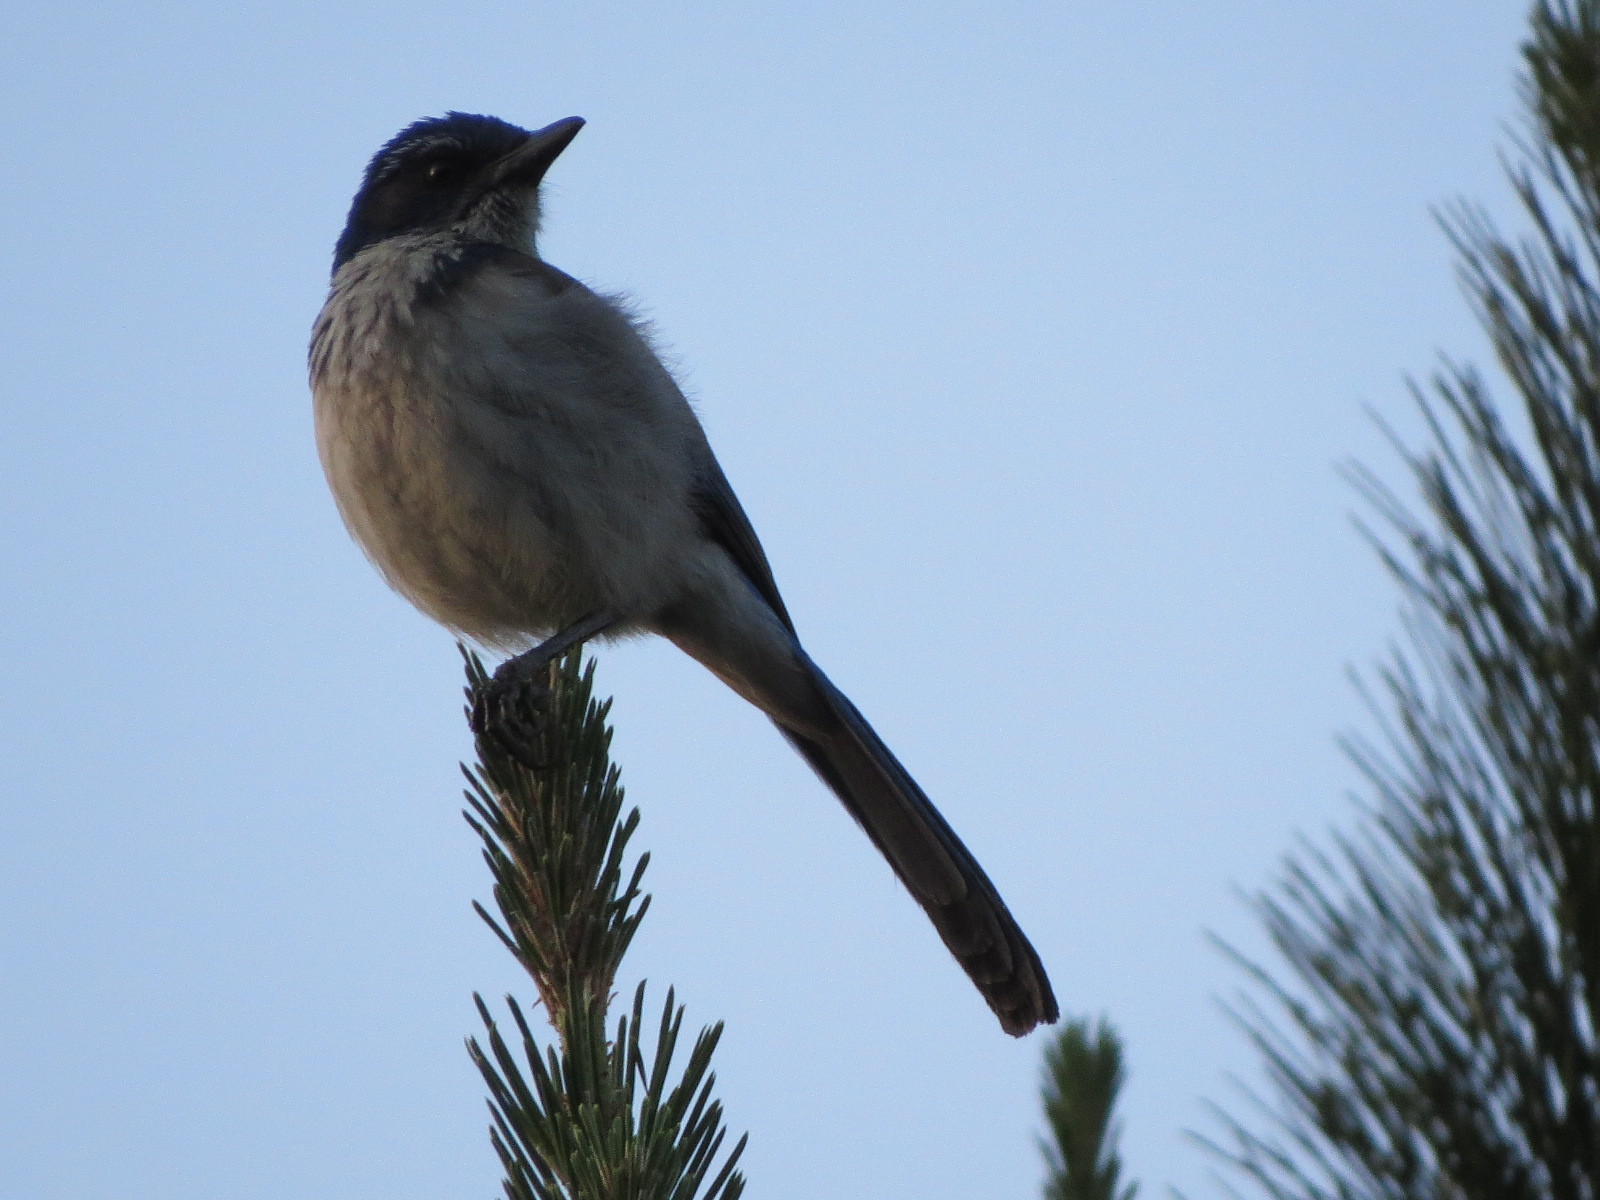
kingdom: Animalia
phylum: Chordata
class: Aves
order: Passeriformes
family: Corvidae
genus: Aphelocoma
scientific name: Aphelocoma californica
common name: California scrub-jay
